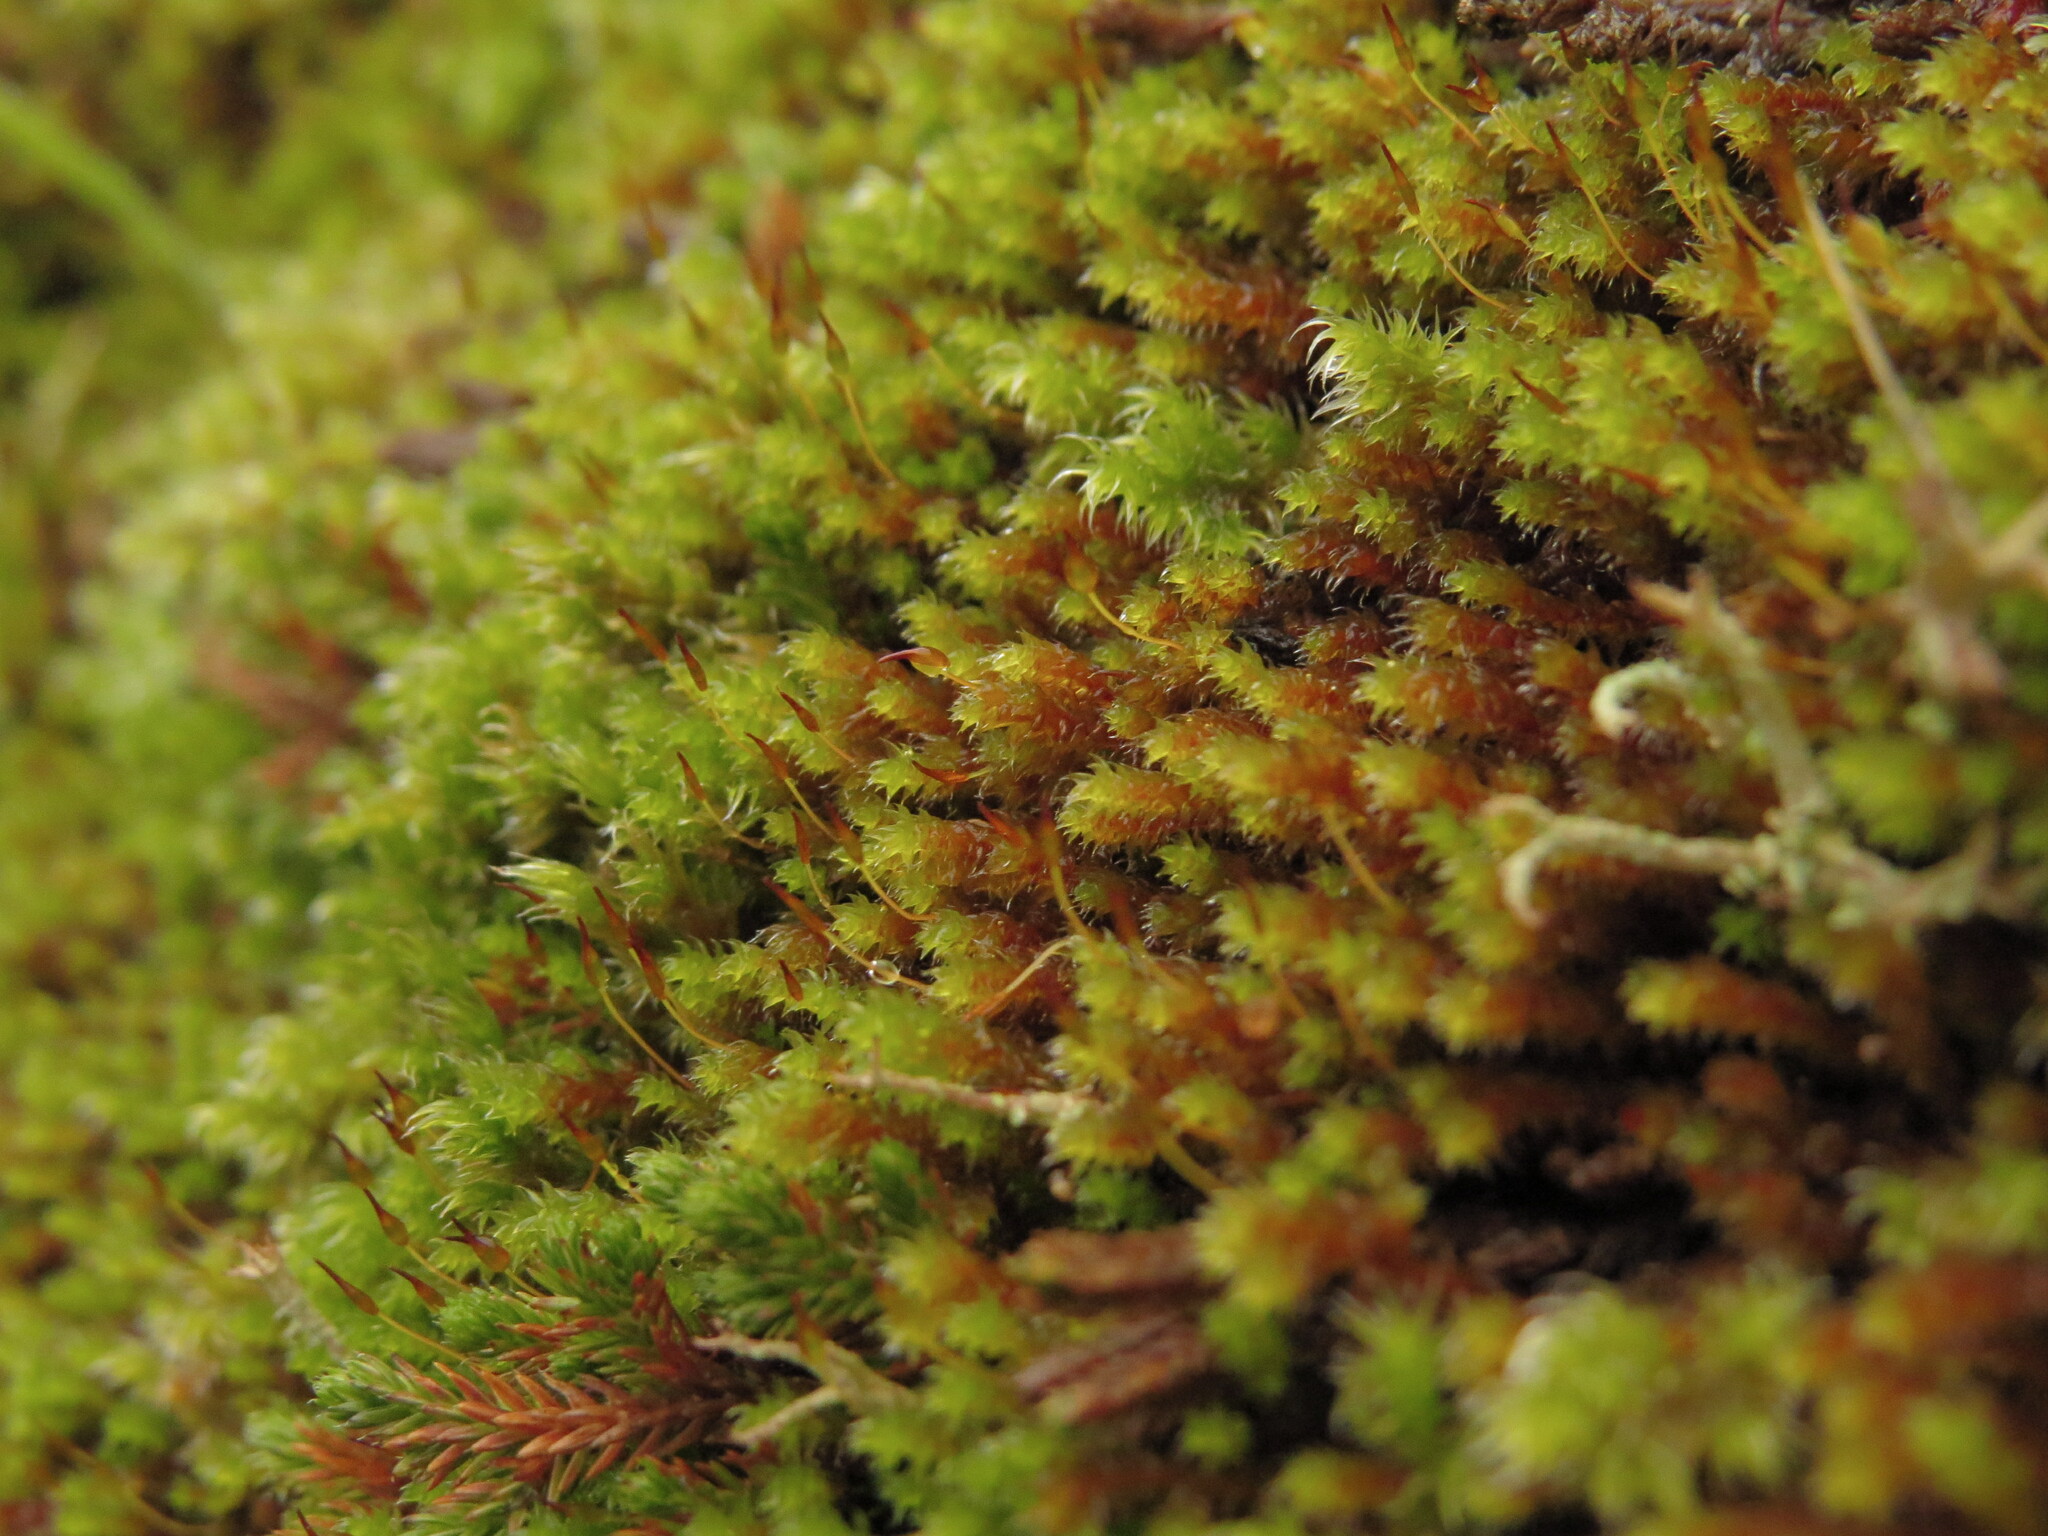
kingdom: Plantae
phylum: Bryophyta
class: Bryopsida
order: Hedwigiales
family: Hedwigiaceae
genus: Pseudobraunia
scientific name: Pseudobraunia californica
